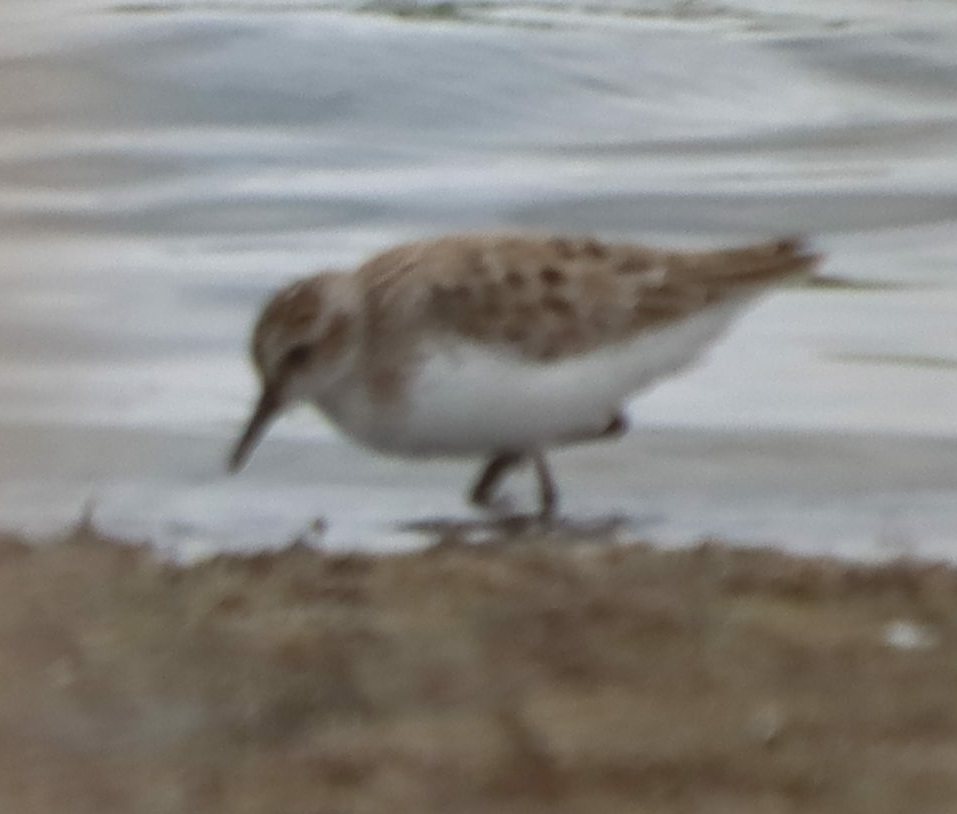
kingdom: Animalia
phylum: Chordata
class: Aves
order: Charadriiformes
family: Scolopacidae
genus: Calidris
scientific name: Calidris pusilla
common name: Semipalmated sandpiper
